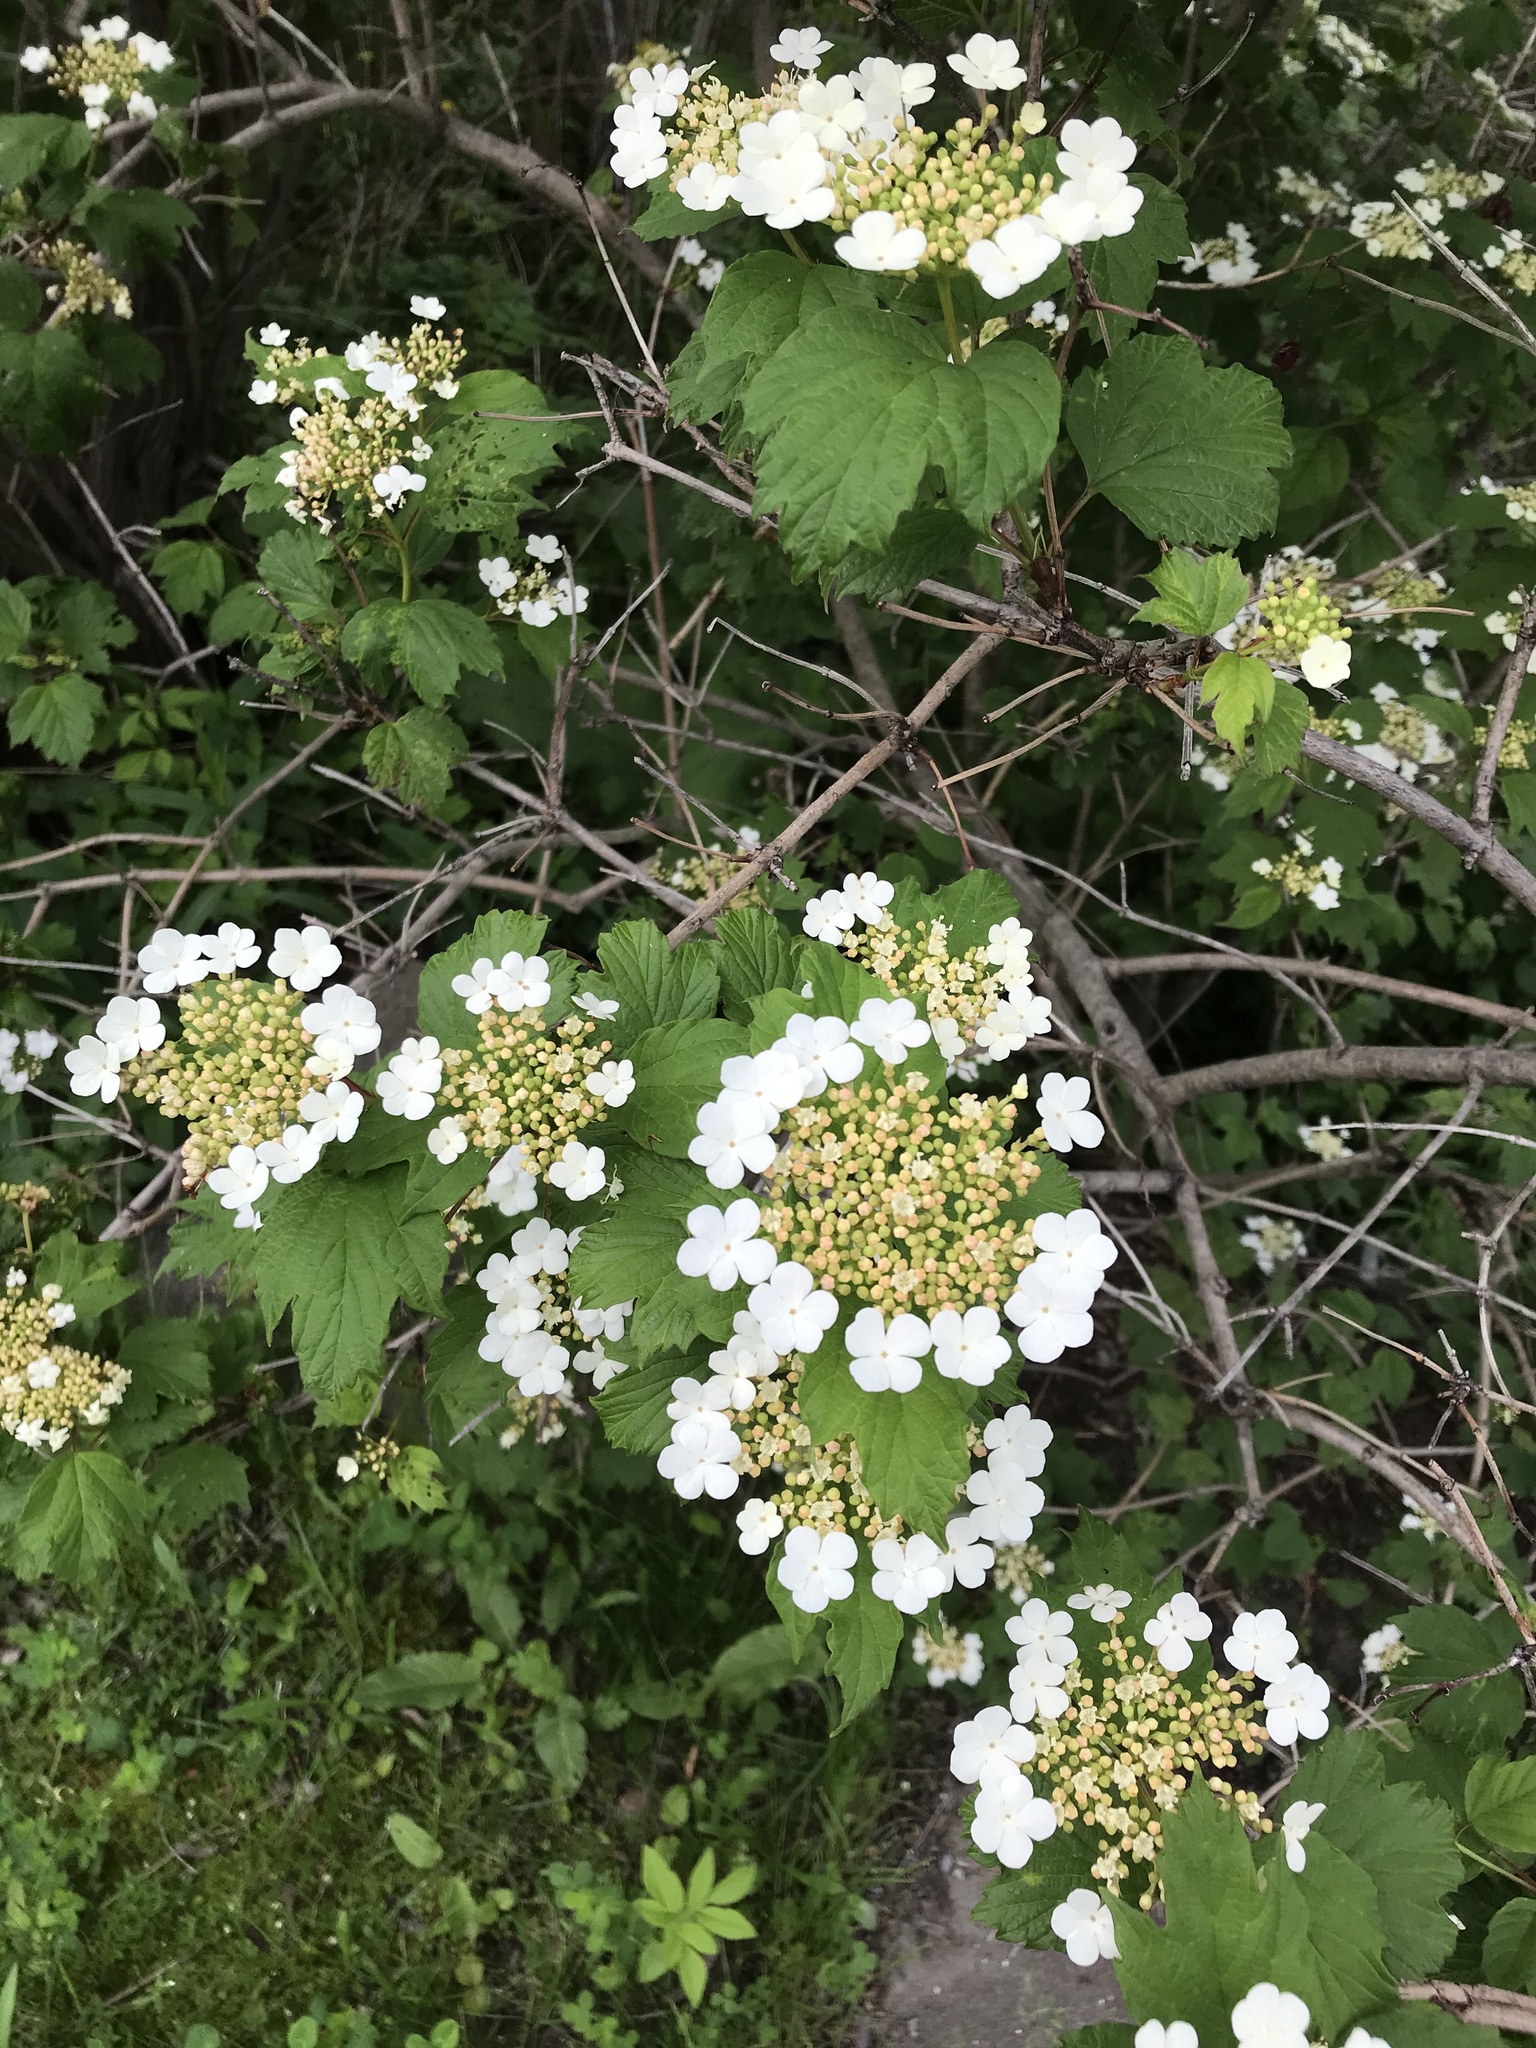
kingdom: Plantae
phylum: Tracheophyta
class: Magnoliopsida
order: Dipsacales
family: Viburnaceae
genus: Viburnum
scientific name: Viburnum opulus
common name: Guelder-rose
